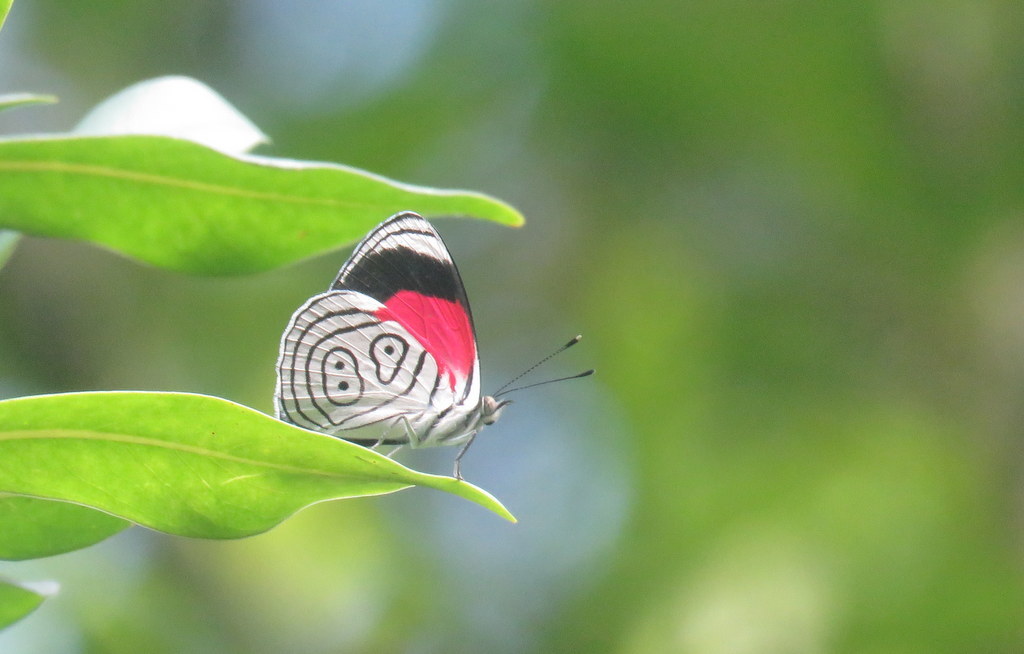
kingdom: Animalia
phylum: Arthropoda
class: Insecta
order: Lepidoptera
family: Nymphalidae
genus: Diaethria
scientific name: Diaethria neglecta
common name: Neglected eighty-eight
